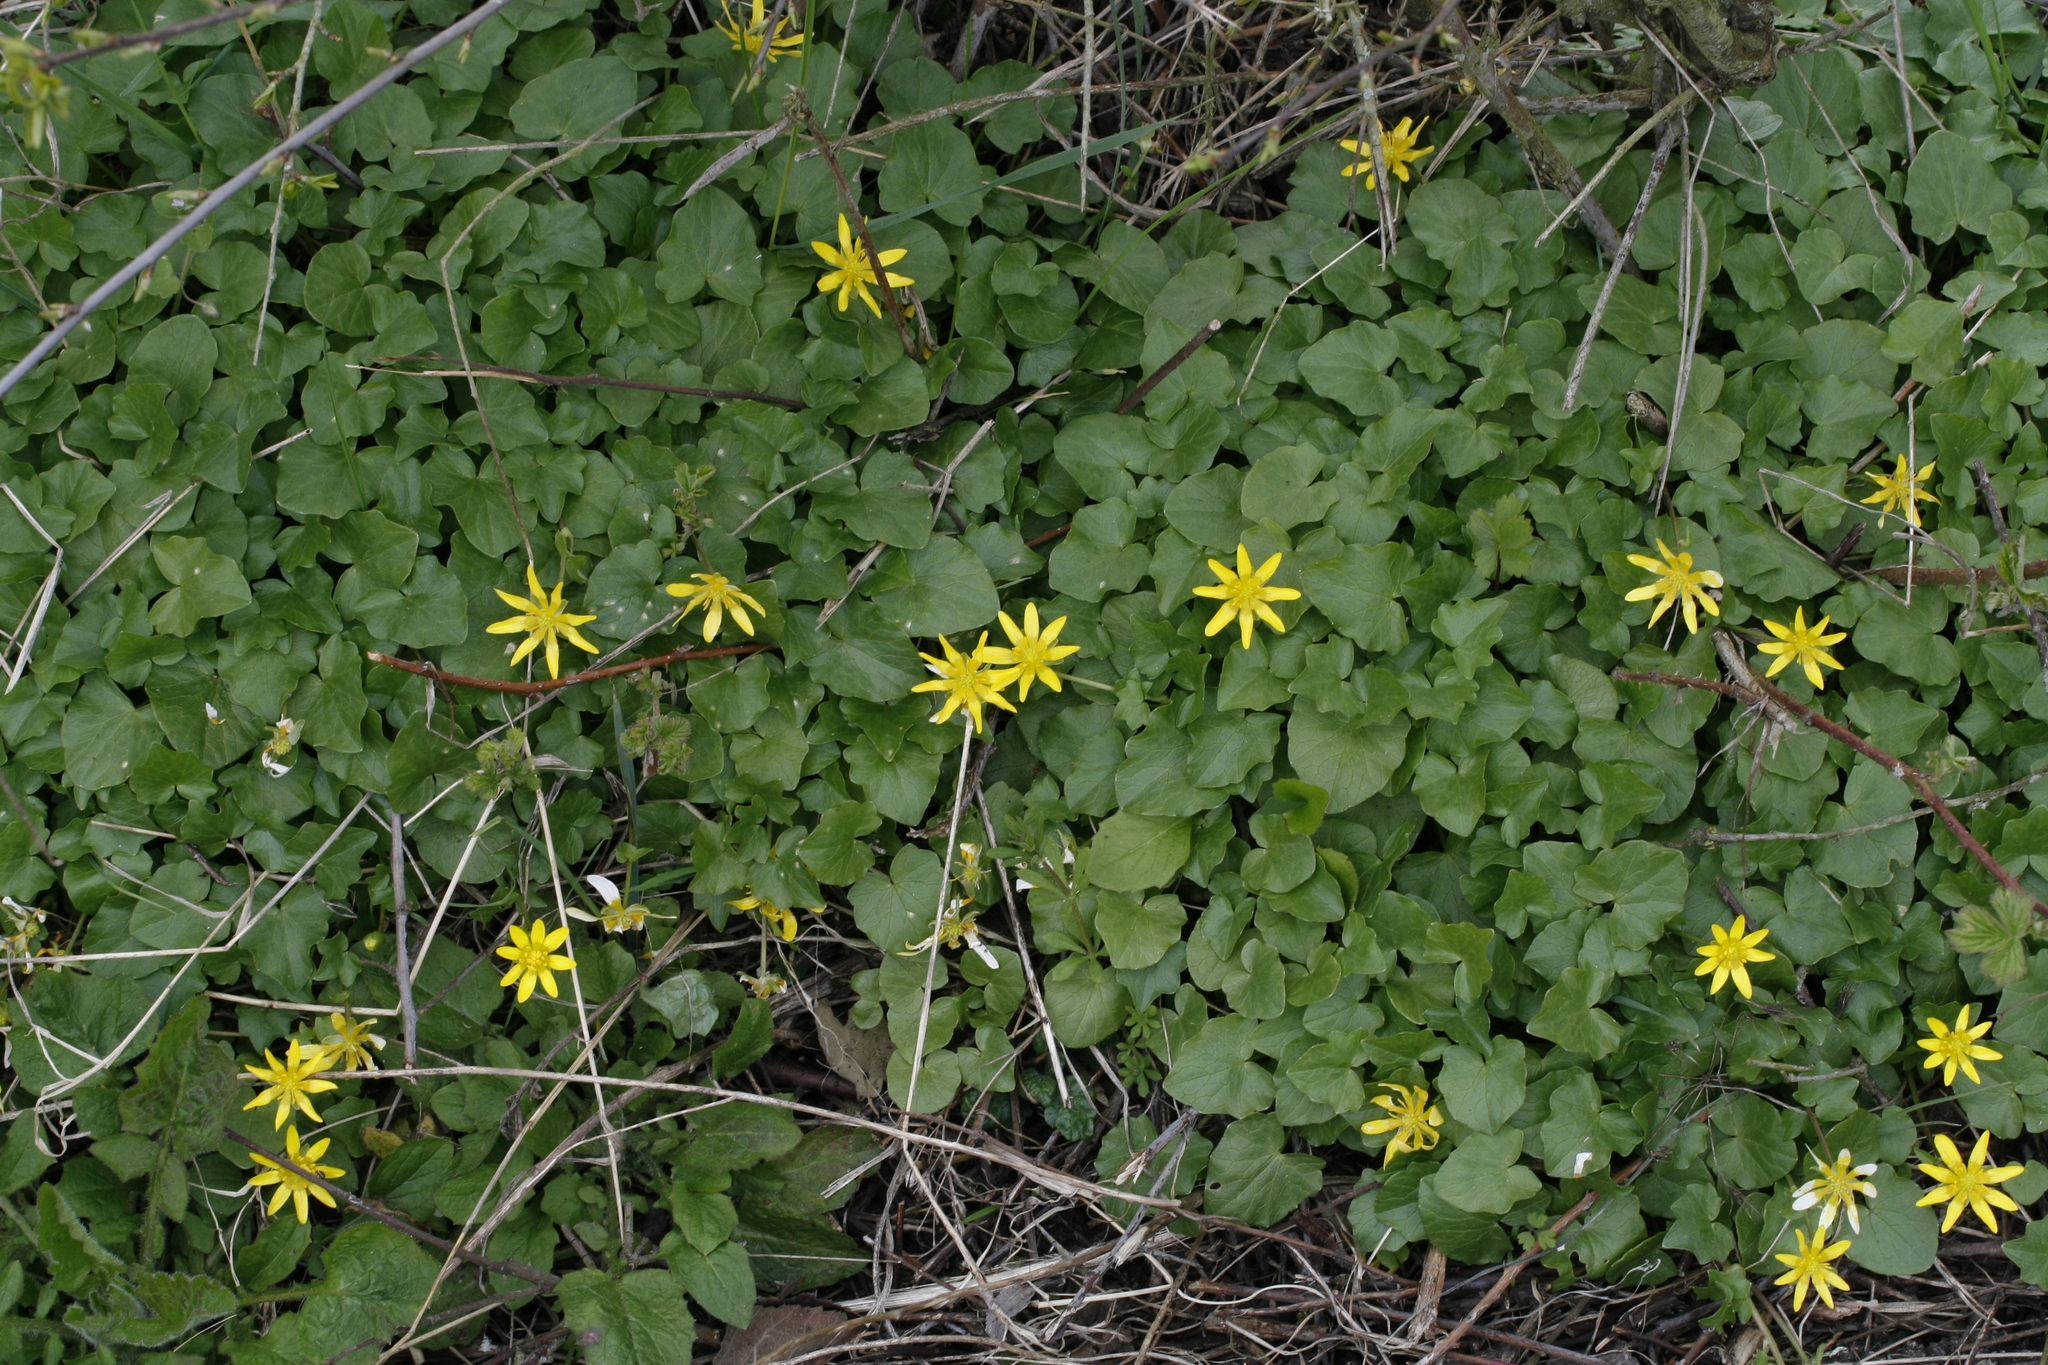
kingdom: Plantae
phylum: Tracheophyta
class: Magnoliopsida
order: Ranunculales
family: Ranunculaceae
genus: Ficaria
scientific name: Ficaria verna
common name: Lesser celandine
